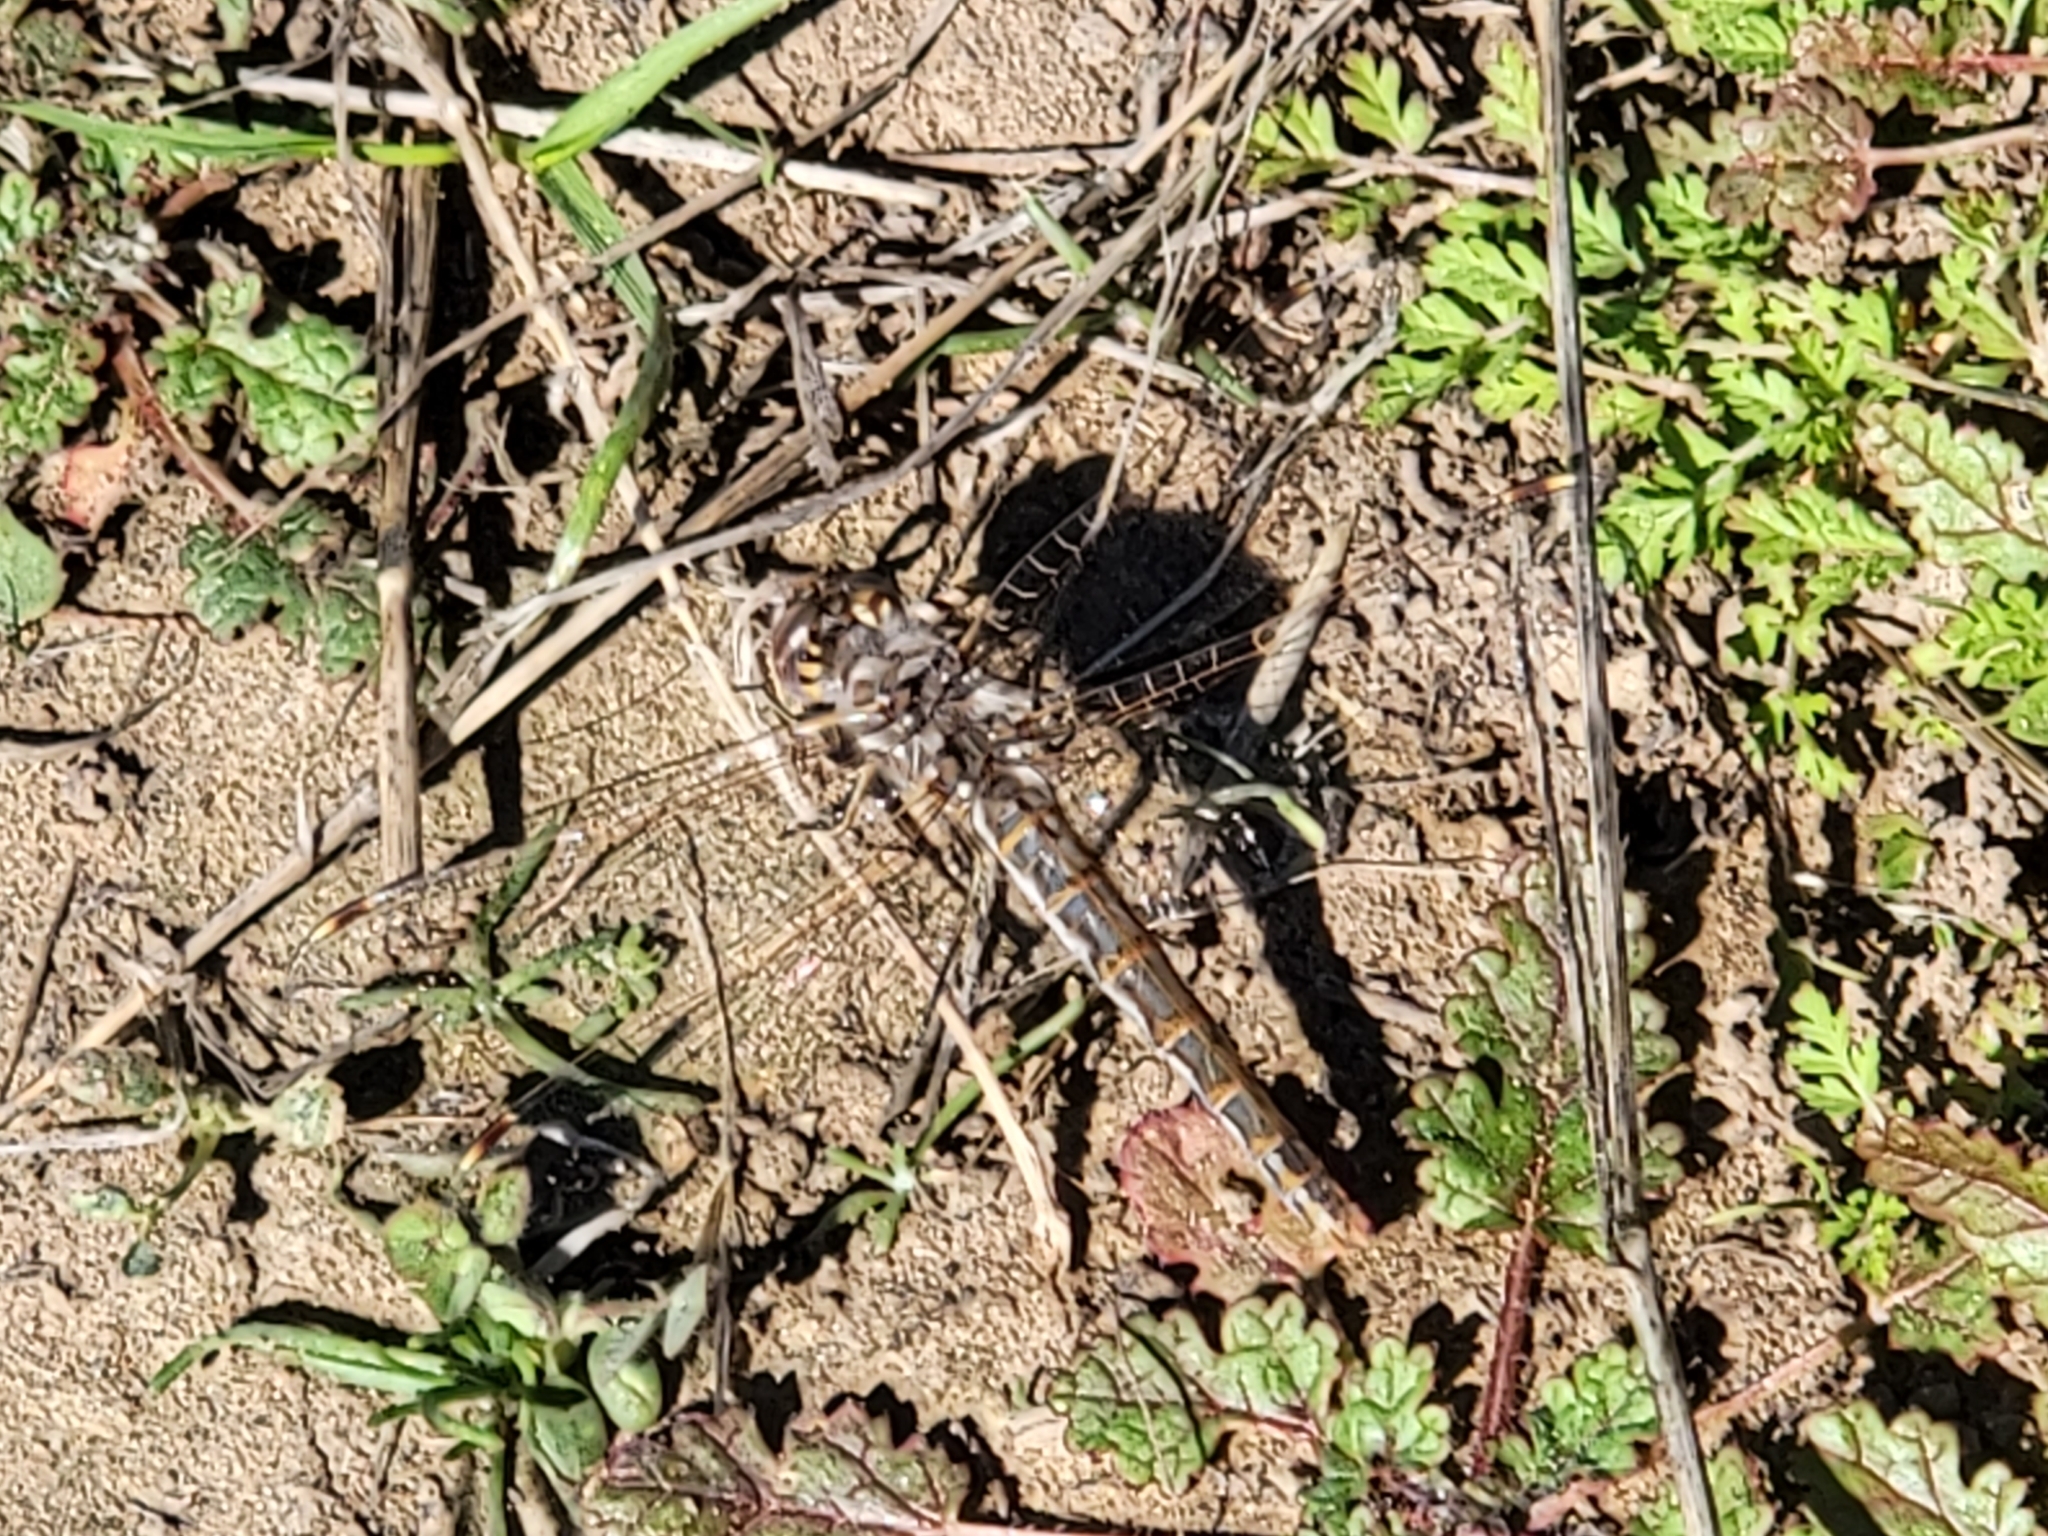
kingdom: Animalia
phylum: Arthropoda
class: Insecta
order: Odonata
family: Libellulidae
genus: Sympetrum
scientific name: Sympetrum corruptum
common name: Variegated meadowhawk
